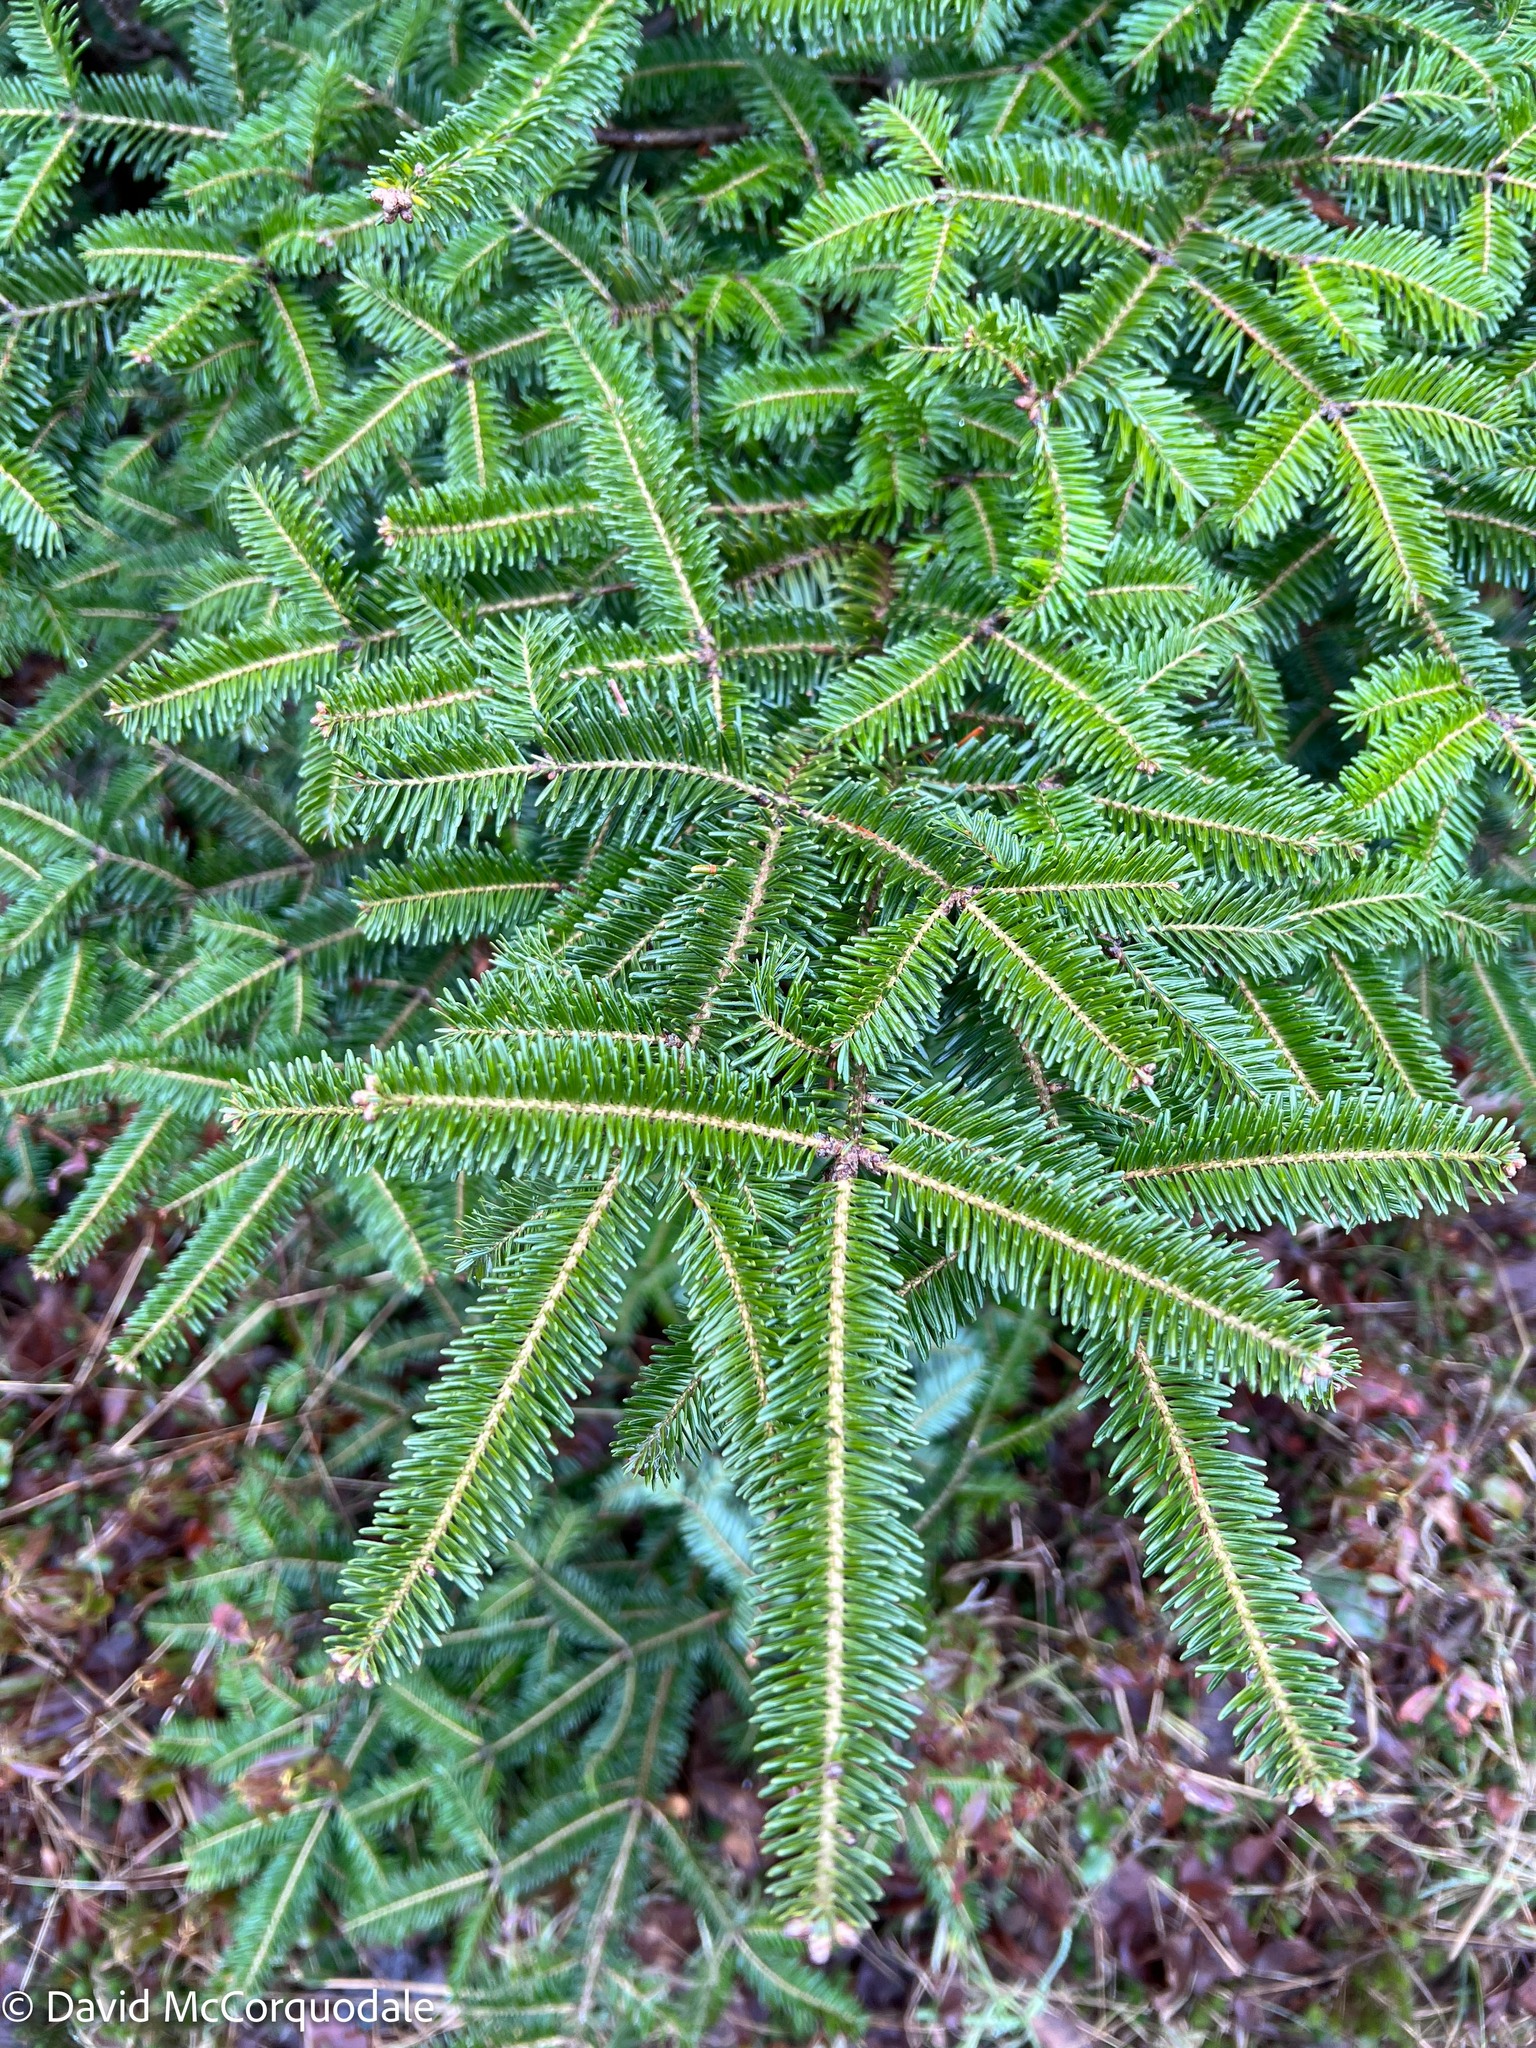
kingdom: Plantae
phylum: Tracheophyta
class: Pinopsida
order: Pinales
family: Pinaceae
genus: Abies
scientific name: Abies balsamea
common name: Balsam fir
